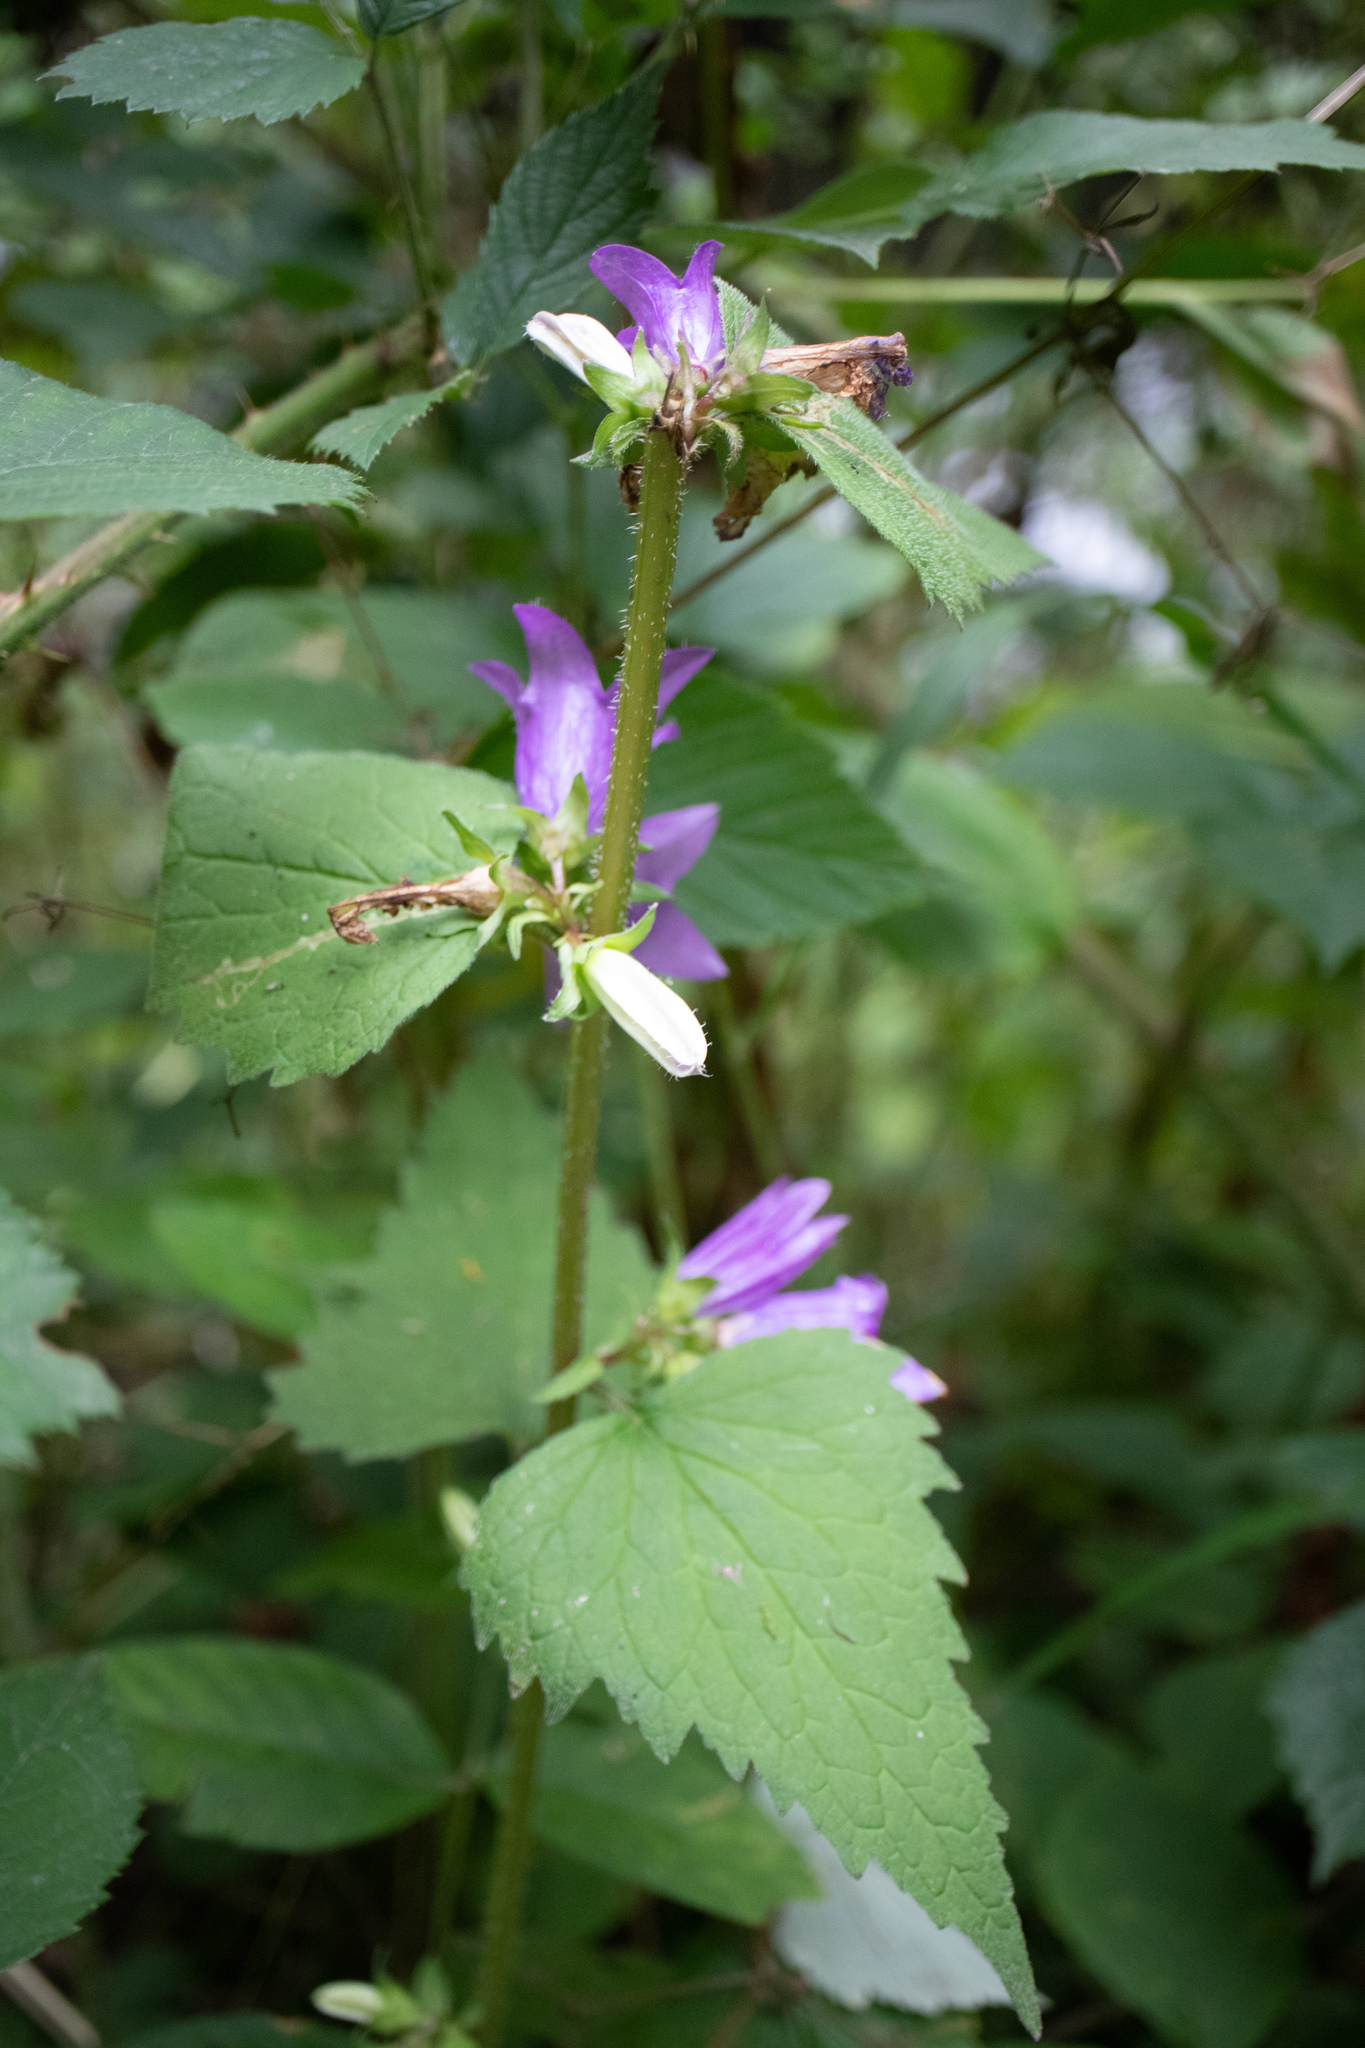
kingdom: Plantae
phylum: Tracheophyta
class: Magnoliopsida
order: Asterales
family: Campanulaceae
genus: Campanula
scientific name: Campanula trachelium
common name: Nettle-leaved bellflower
